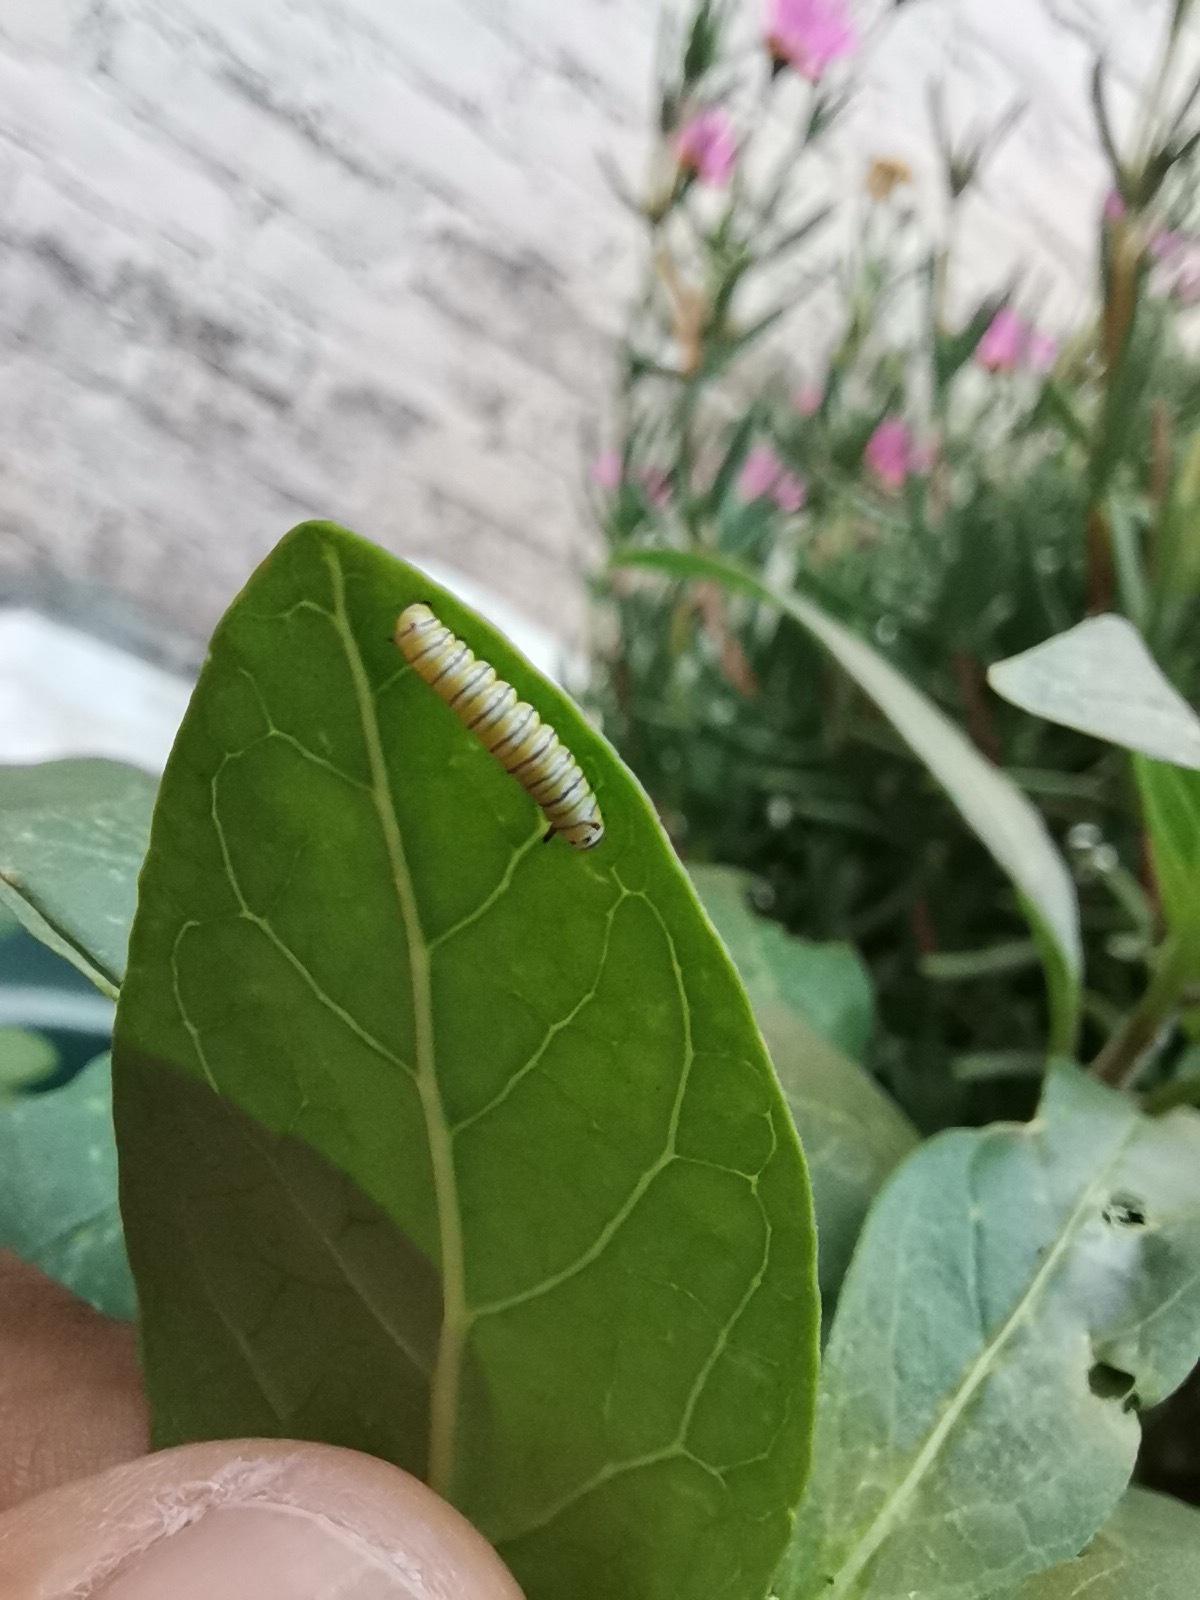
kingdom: Animalia
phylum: Arthropoda
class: Insecta
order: Lepidoptera
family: Nymphalidae
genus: Danaus
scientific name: Danaus plexippus
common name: Monarch
